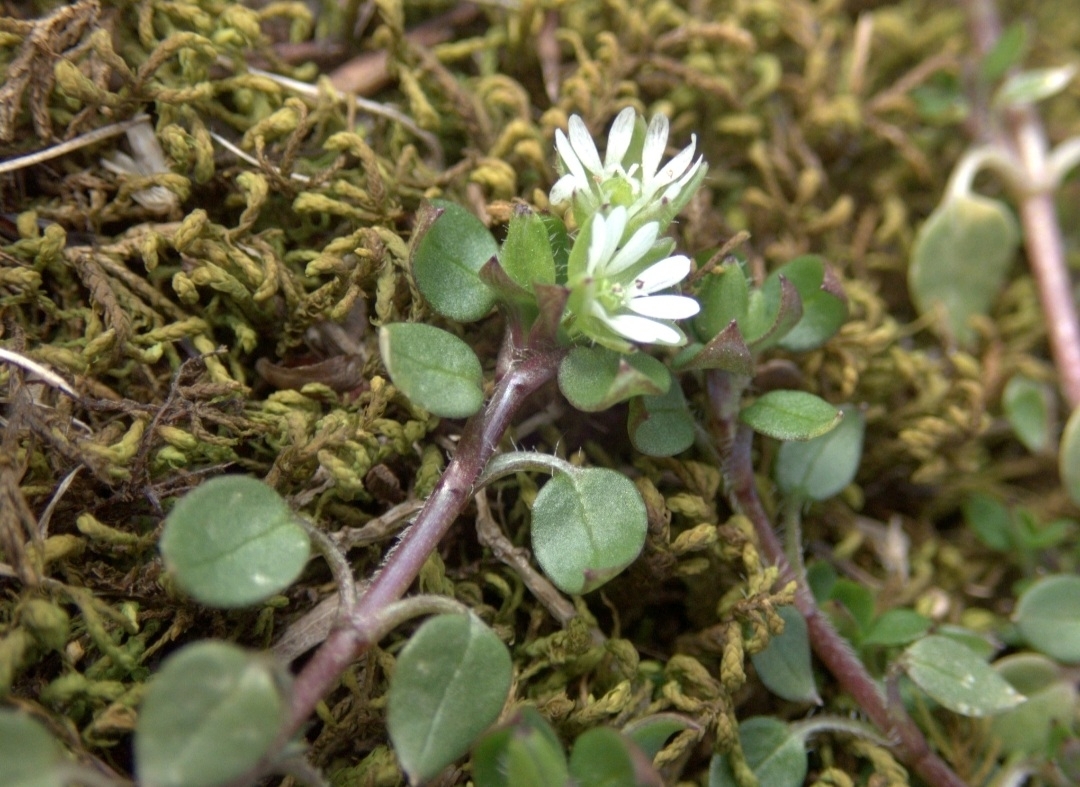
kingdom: Plantae
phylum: Tracheophyta
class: Magnoliopsida
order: Caryophyllales
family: Caryophyllaceae
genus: Stellaria
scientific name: Stellaria media
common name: Common chickweed
